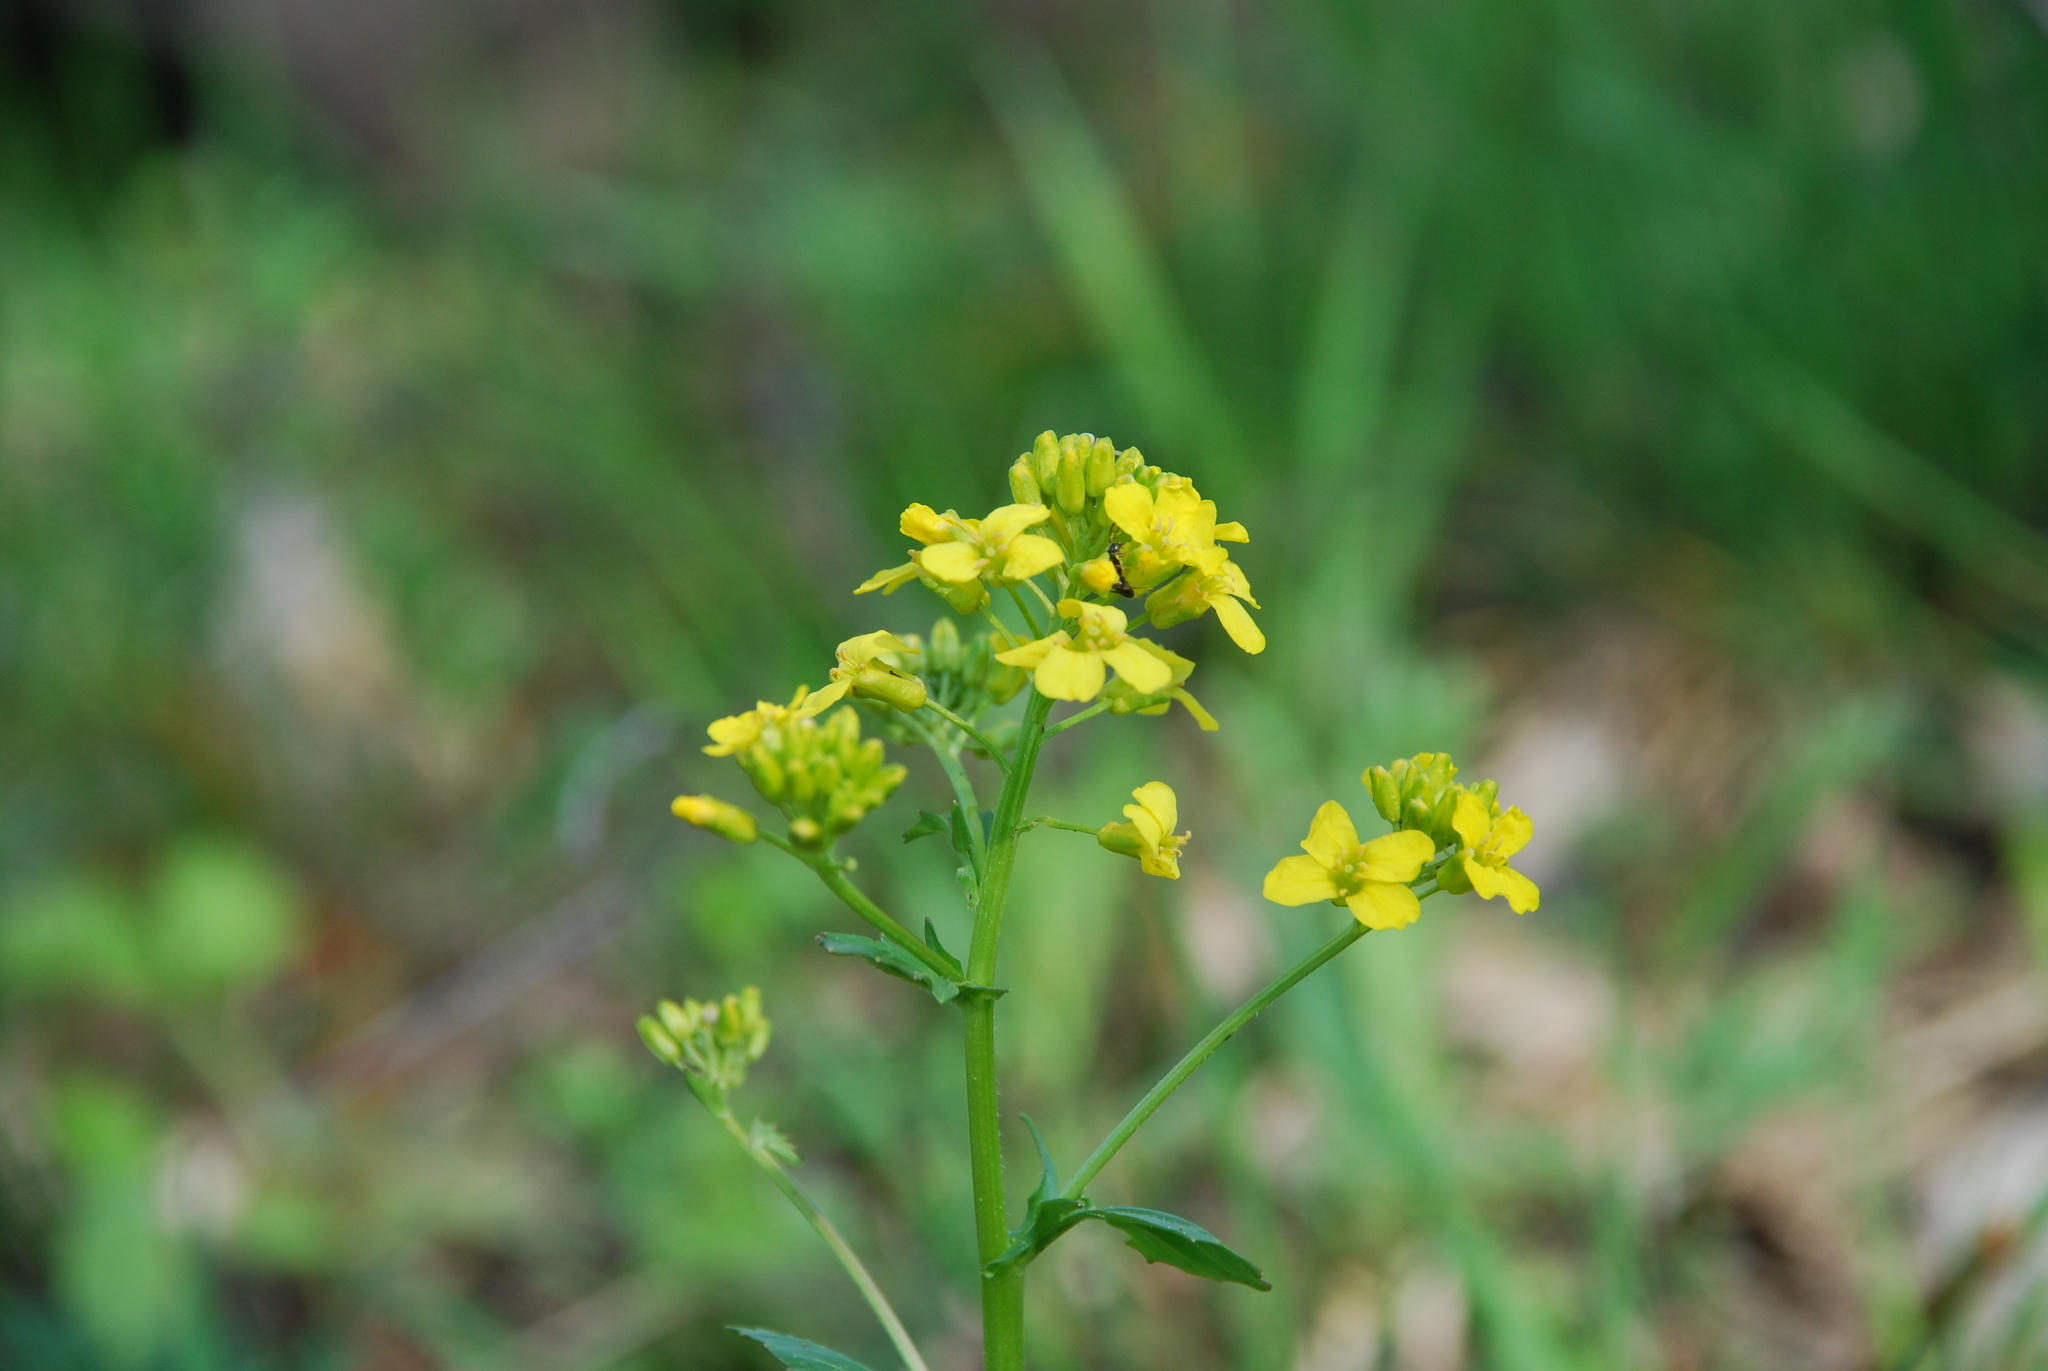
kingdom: Plantae
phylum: Tracheophyta
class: Magnoliopsida
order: Brassicales
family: Brassicaceae
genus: Barbarea
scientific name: Barbarea vulgaris
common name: Cressy-greens
